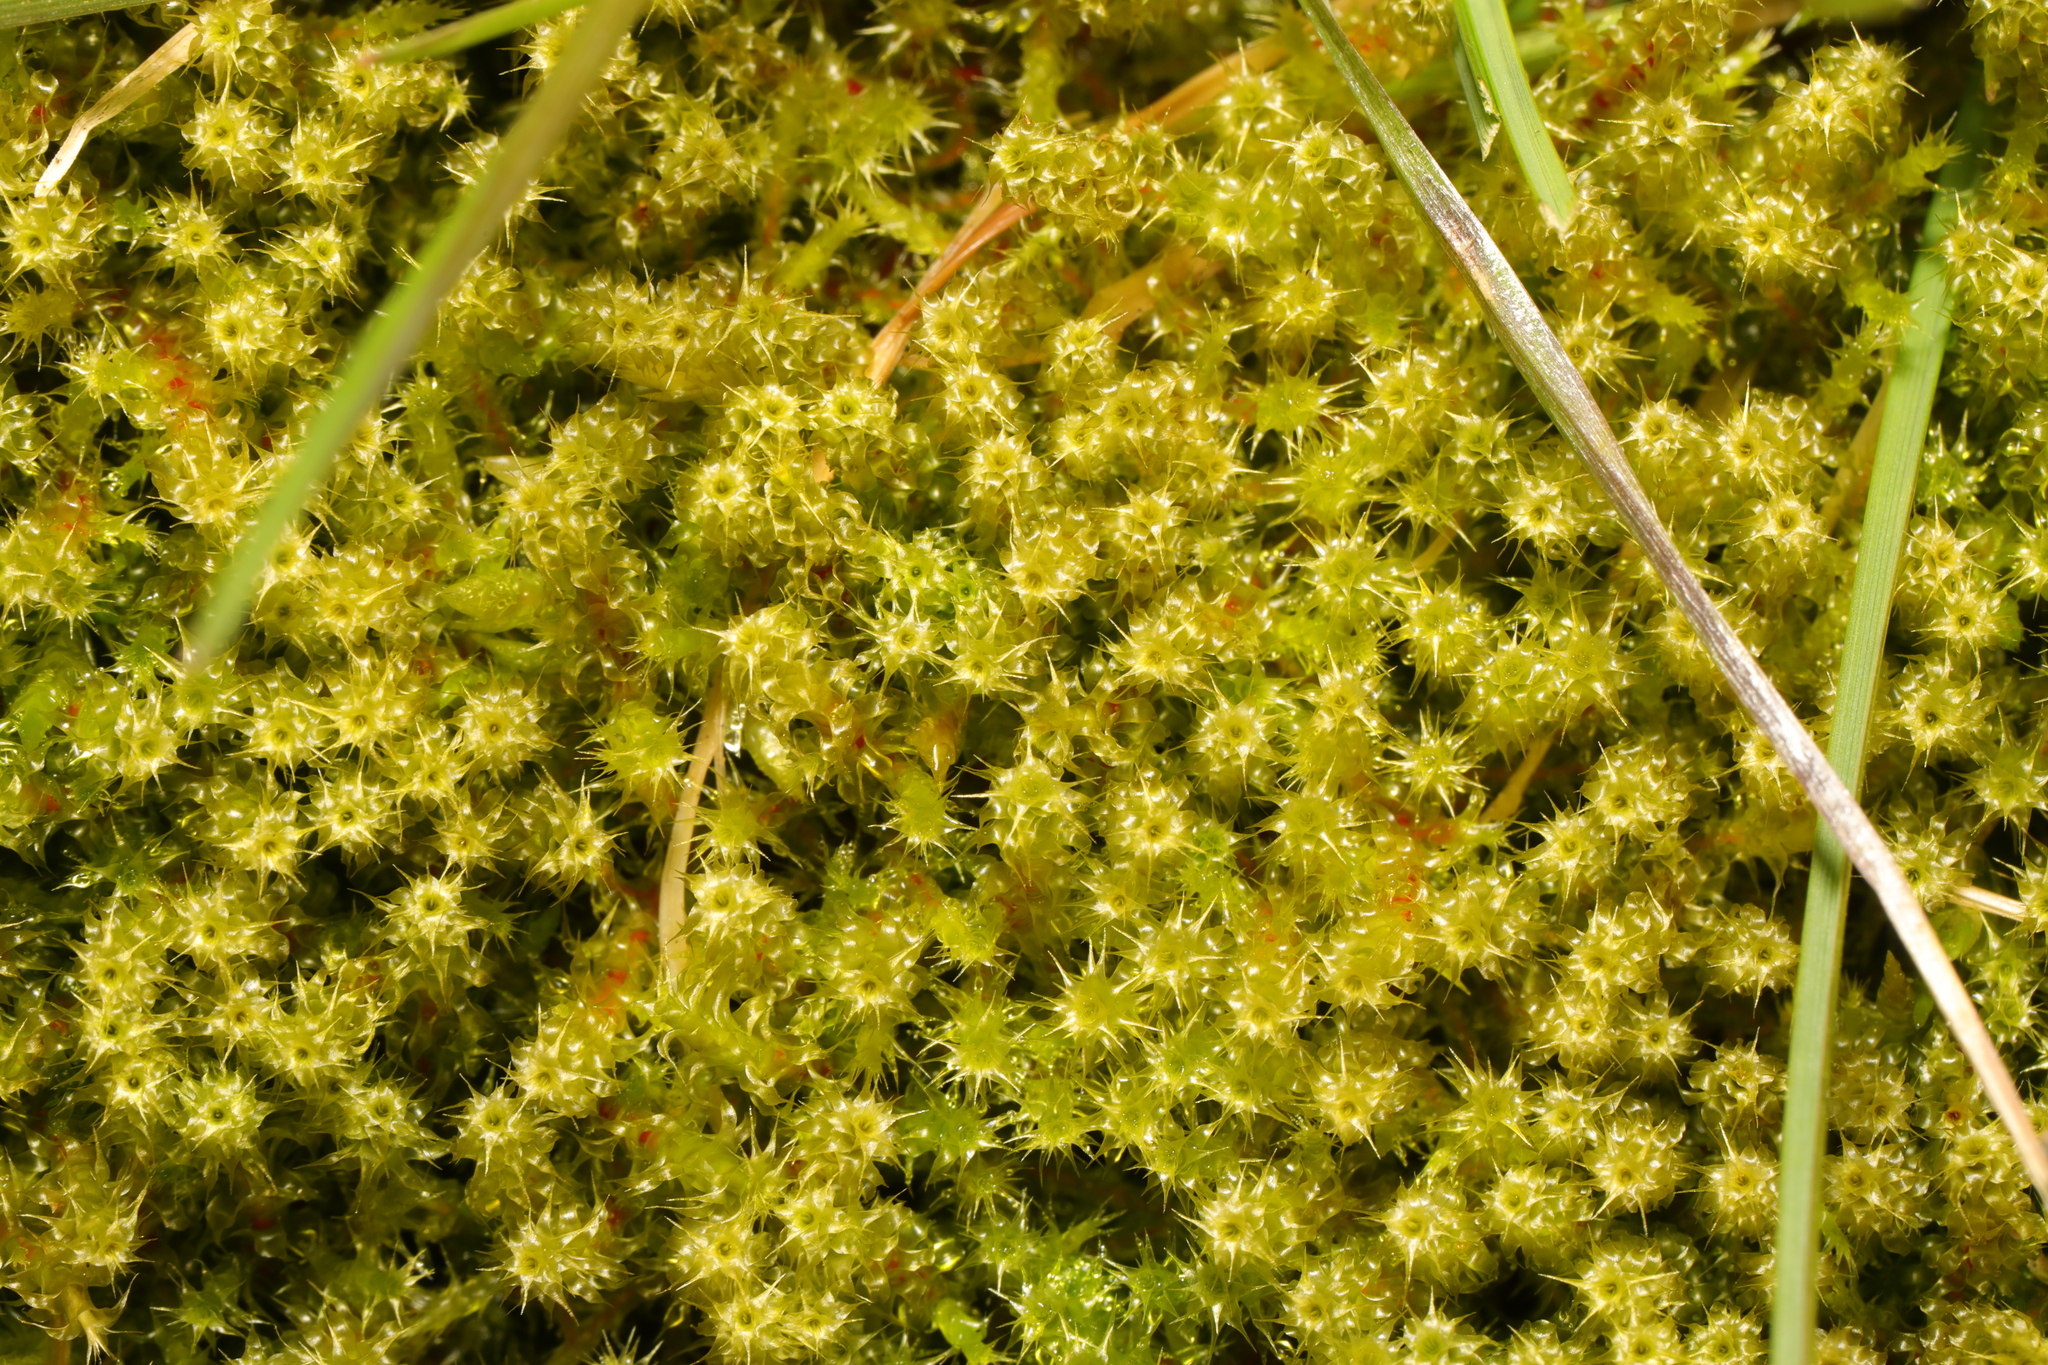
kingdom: Plantae
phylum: Bryophyta
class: Bryopsida
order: Hypnales
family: Hylocomiaceae
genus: Rhytidiadelphus
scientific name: Rhytidiadelphus squarrosus
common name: Springy turf-moss
